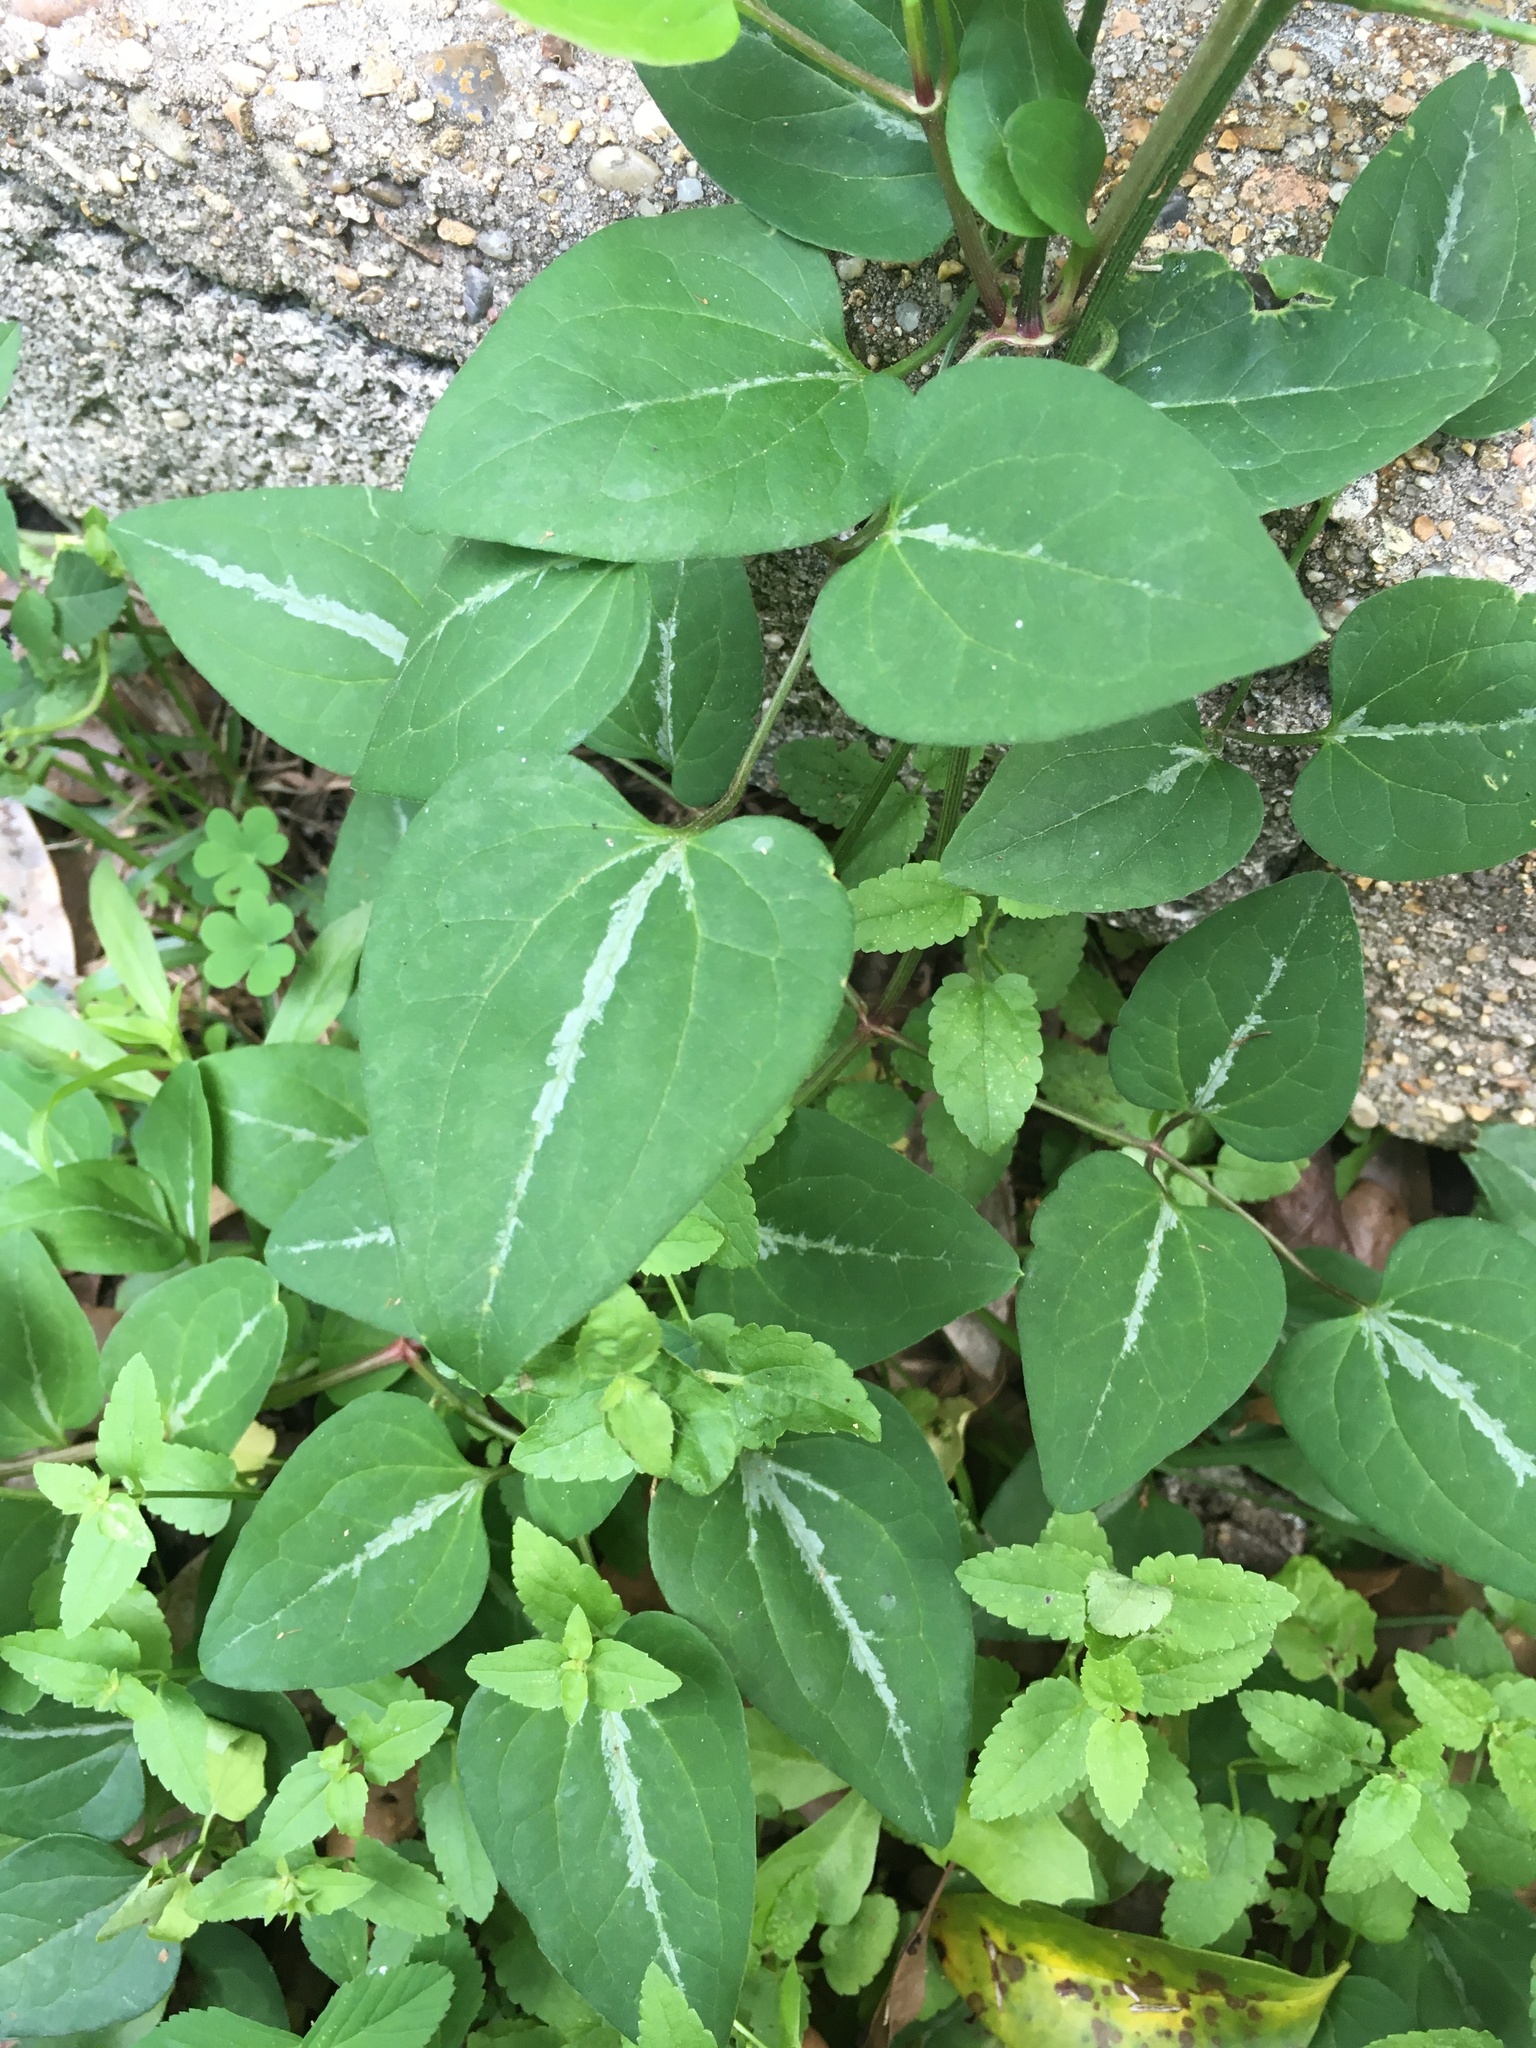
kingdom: Plantae
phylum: Tracheophyta
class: Magnoliopsida
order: Ranunculales
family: Ranunculaceae
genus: Clematis
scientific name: Clematis terniflora
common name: Sweet autumn clematis
